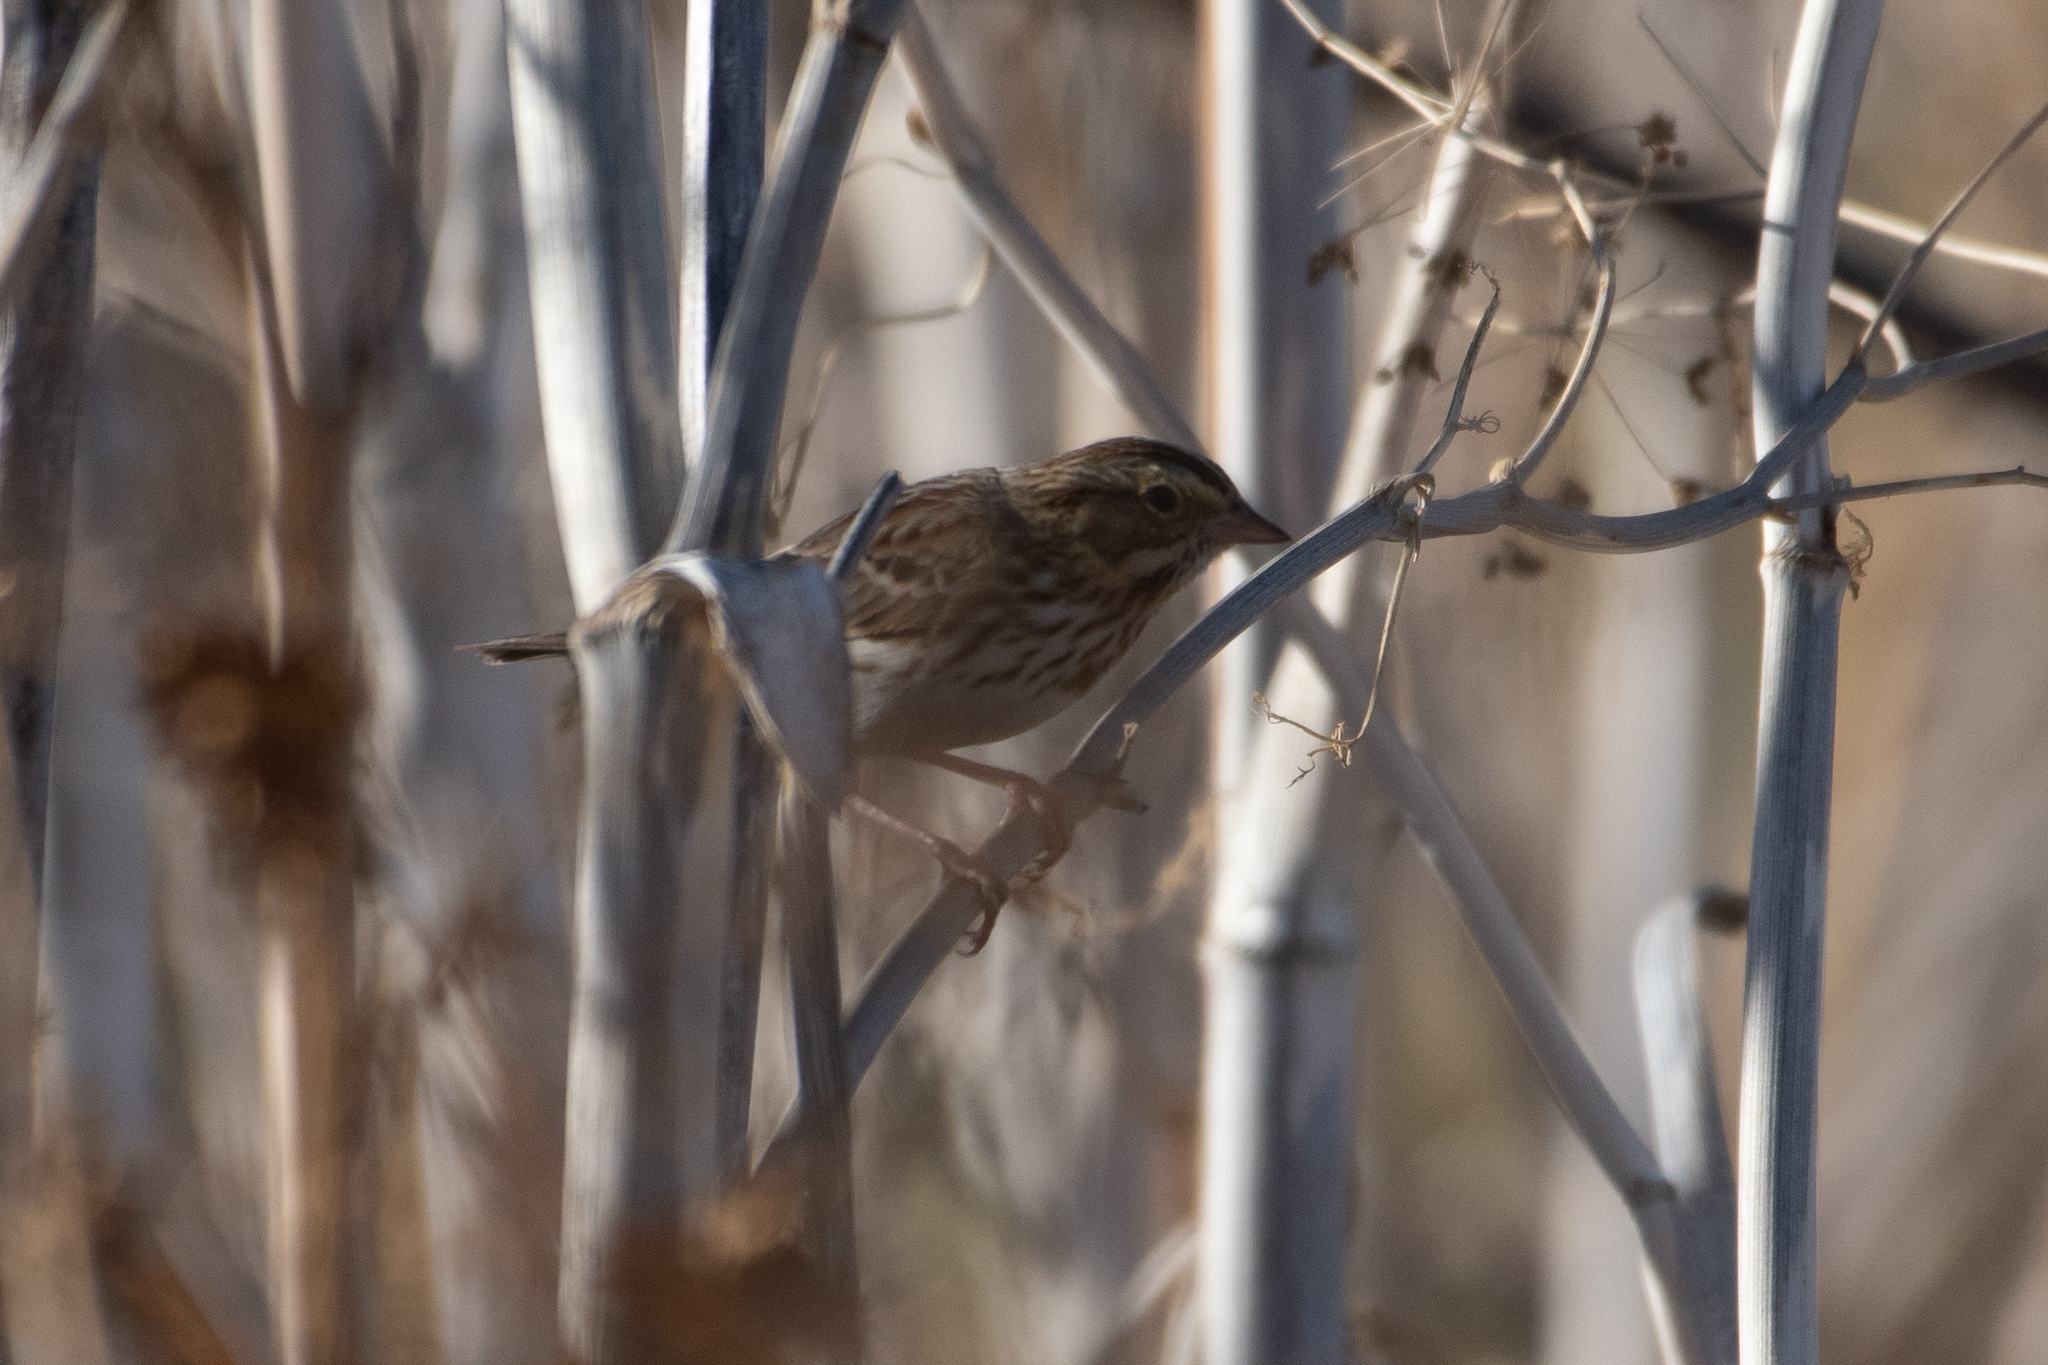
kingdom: Animalia
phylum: Chordata
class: Aves
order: Passeriformes
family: Passerellidae
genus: Passerculus
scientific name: Passerculus sandwichensis
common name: Savannah sparrow
